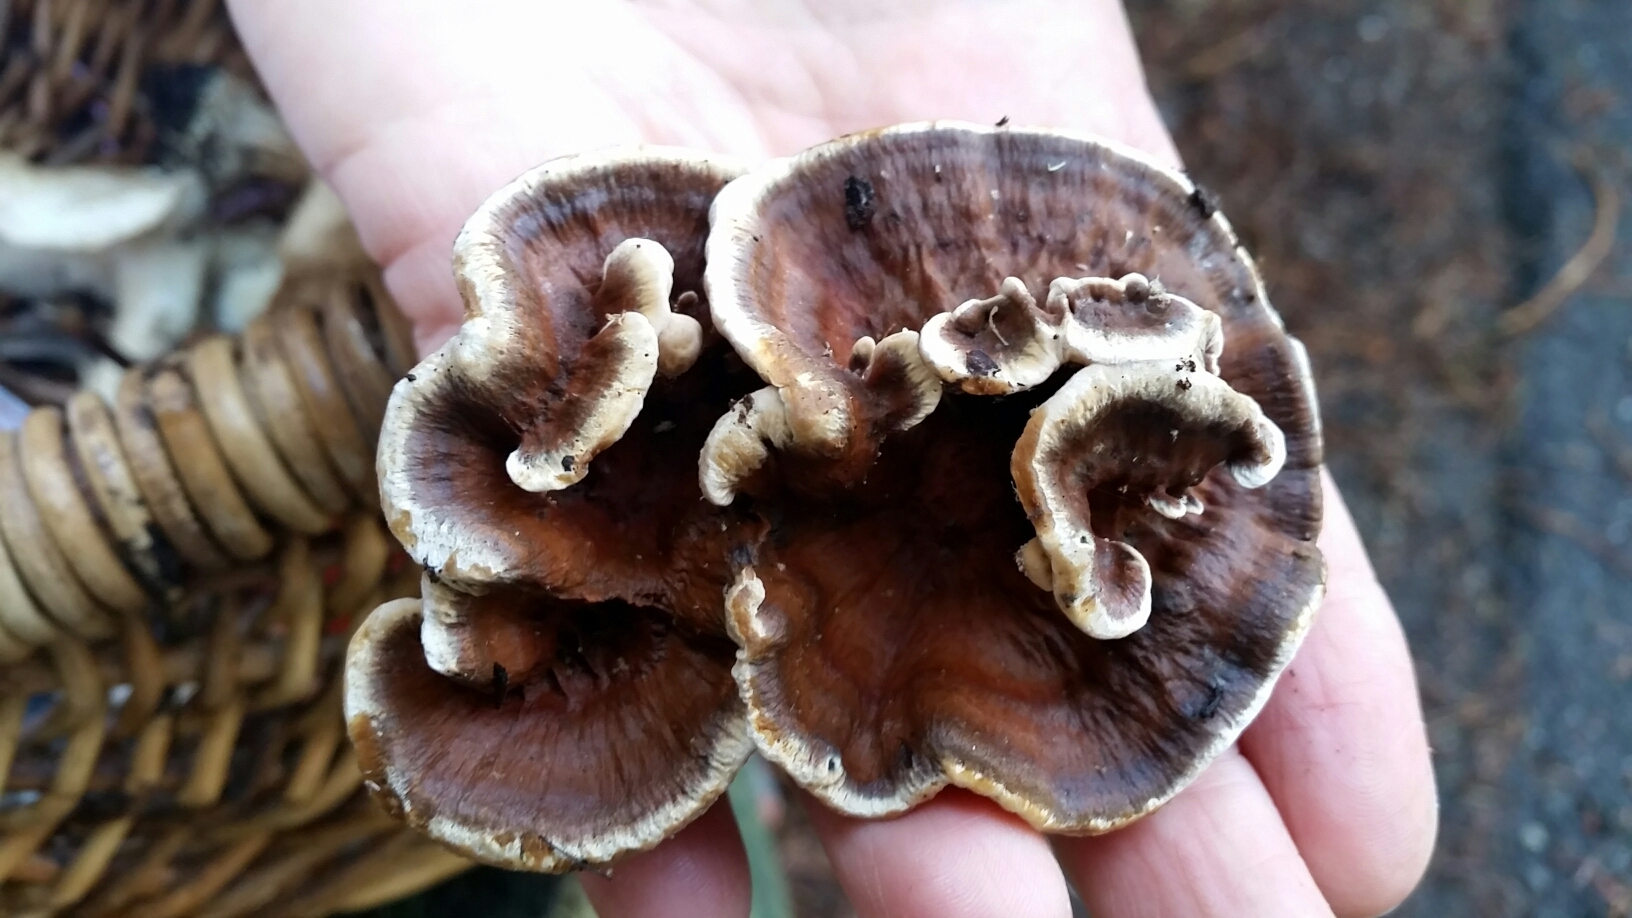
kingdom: Fungi
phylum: Basidiomycota
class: Agaricomycetes
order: Thelephorales
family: Bankeraceae
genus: Hydnellum
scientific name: Hydnellum aurantiacum
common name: Orange tooth
